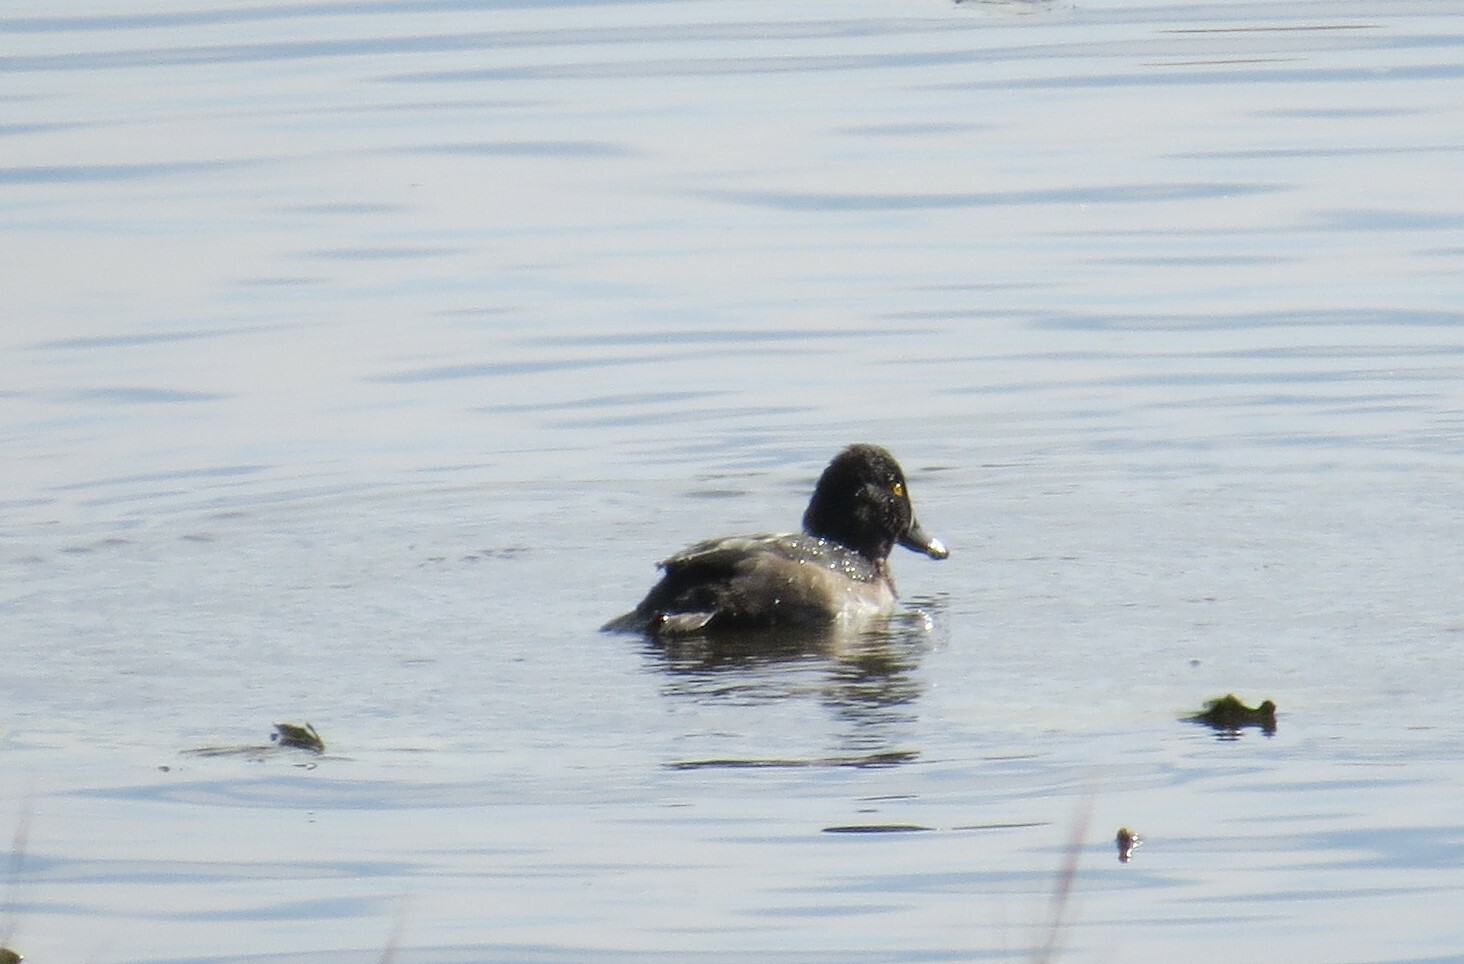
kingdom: Animalia
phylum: Chordata
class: Aves
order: Anseriformes
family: Anatidae
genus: Aythya
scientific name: Aythya collaris
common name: Ring-necked duck
